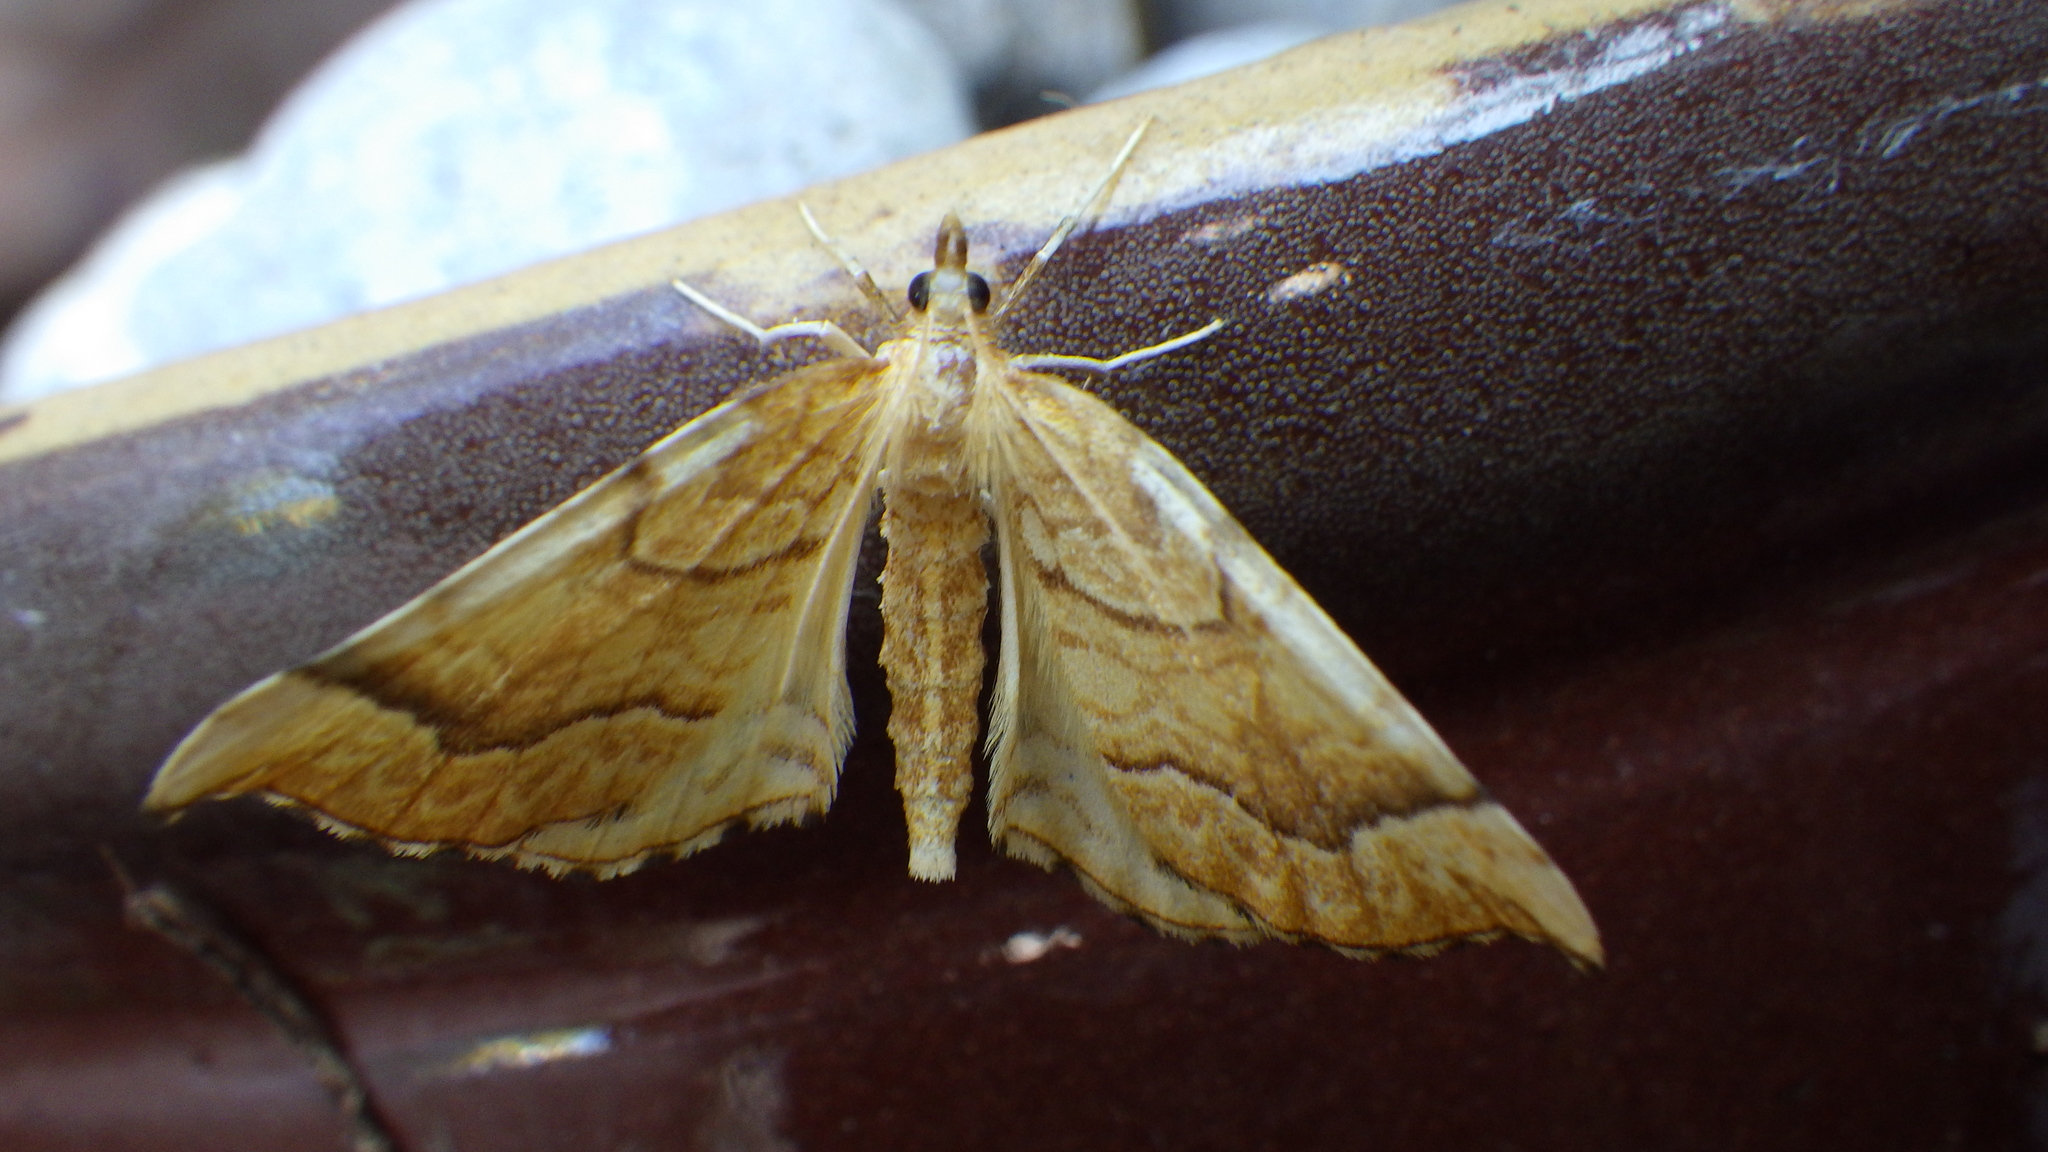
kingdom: Animalia
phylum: Arthropoda
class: Insecta
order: Lepidoptera
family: Geometridae
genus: Eulithis
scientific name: Eulithis mellinata
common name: Spinach
